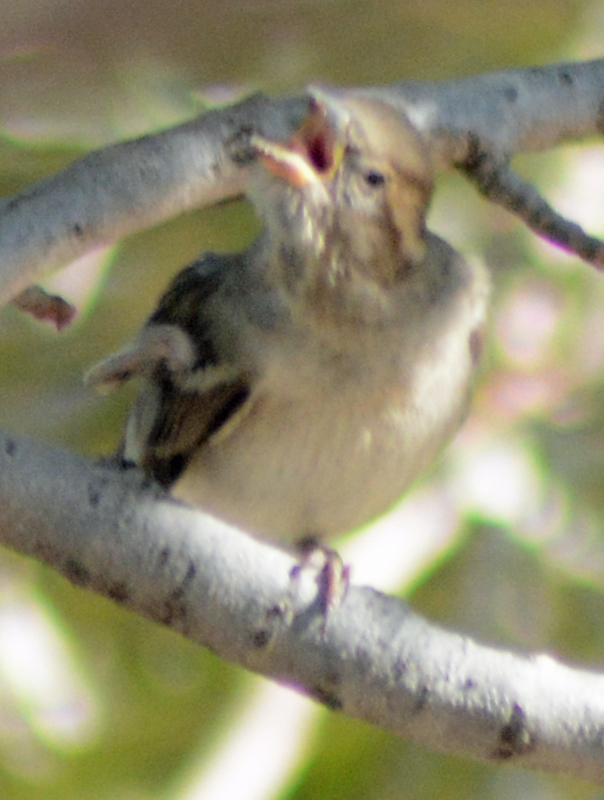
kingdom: Animalia
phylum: Chordata
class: Aves
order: Passeriformes
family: Passeridae
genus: Passer
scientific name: Passer domesticus
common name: House sparrow
